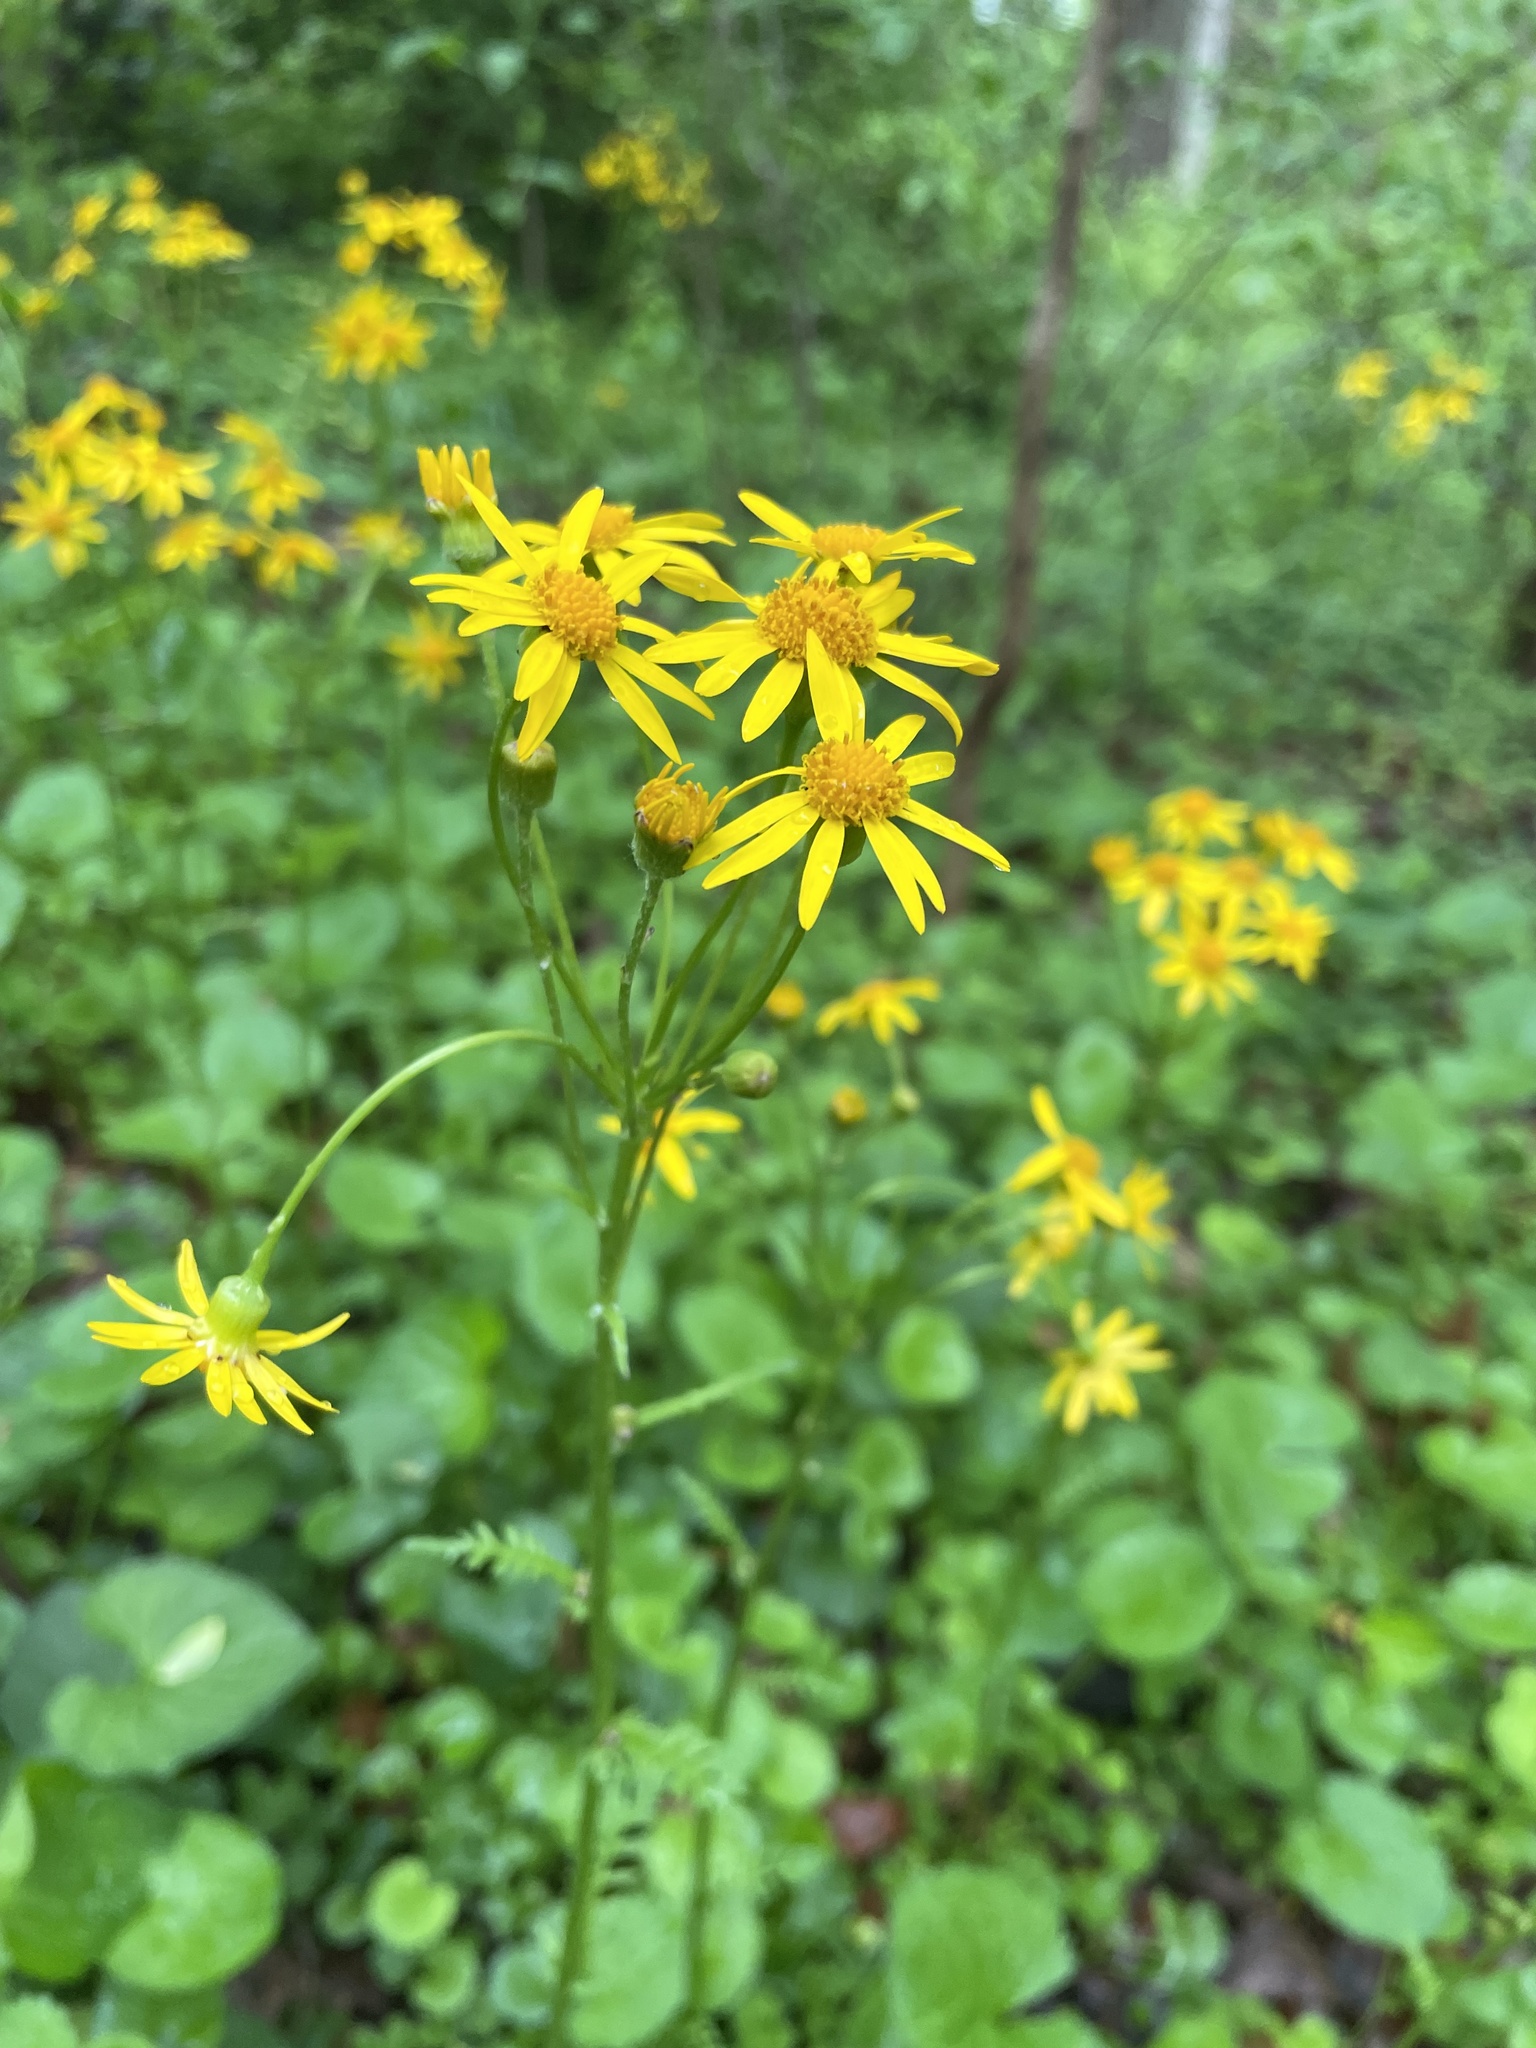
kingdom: Plantae
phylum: Tracheophyta
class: Magnoliopsida
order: Asterales
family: Asteraceae
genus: Packera
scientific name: Packera aurea
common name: Golden groundsel
